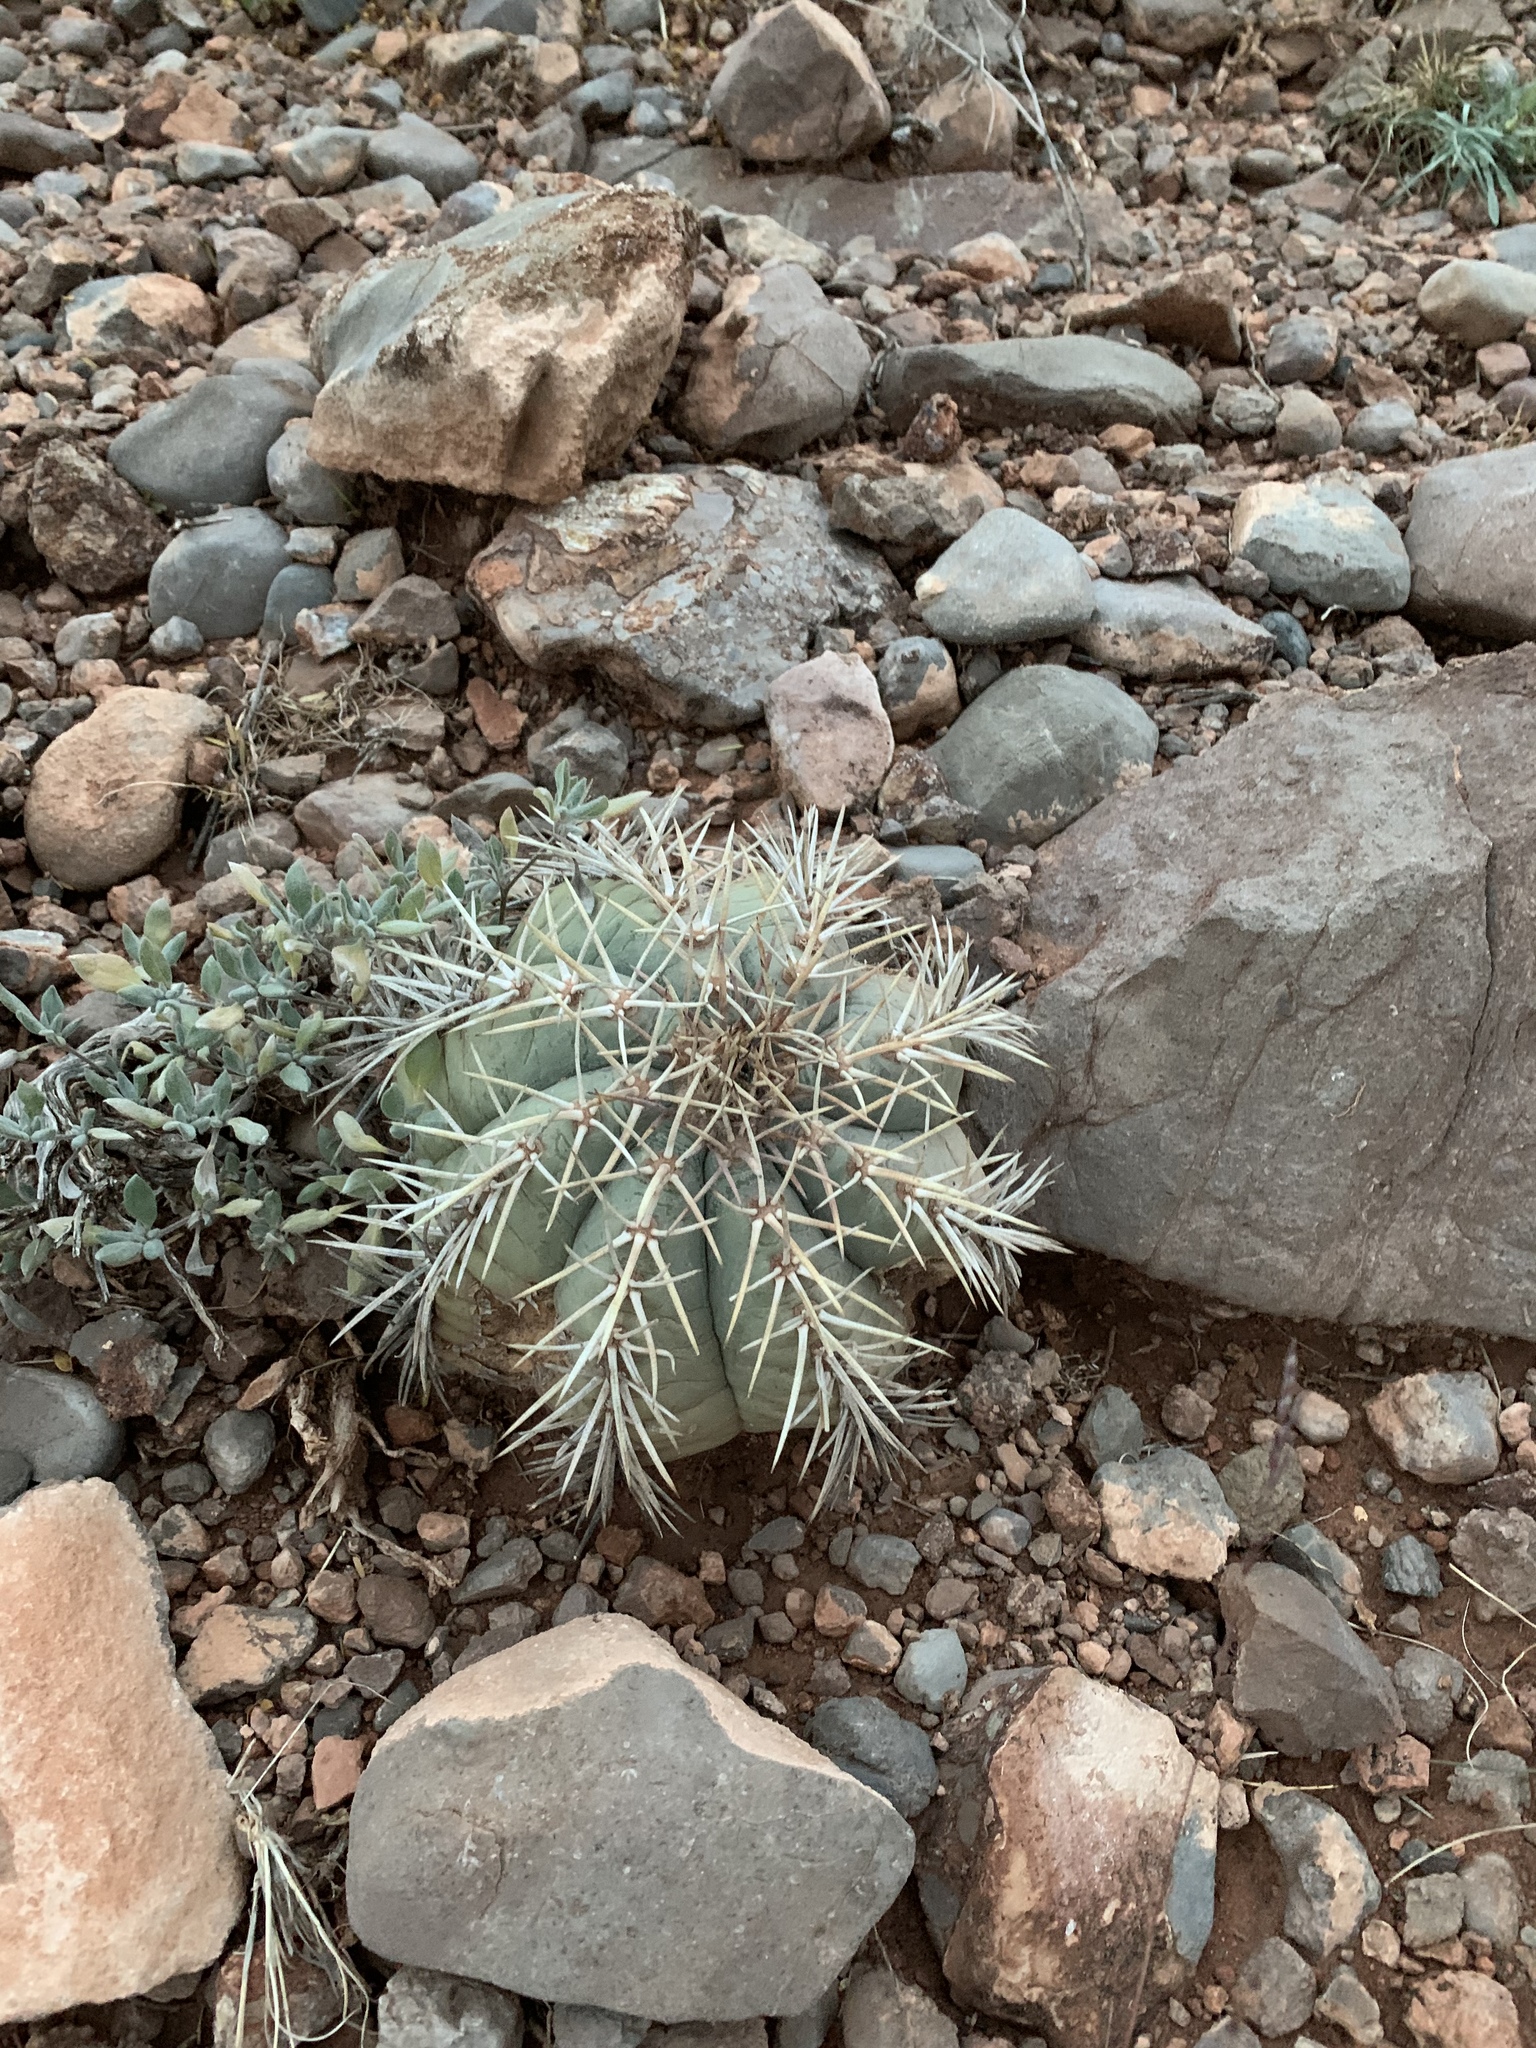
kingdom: Plantae
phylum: Tracheophyta
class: Magnoliopsida
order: Caryophyllales
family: Cactaceae
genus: Echinocactus
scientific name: Echinocactus horizonthalonius
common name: Devilshead
